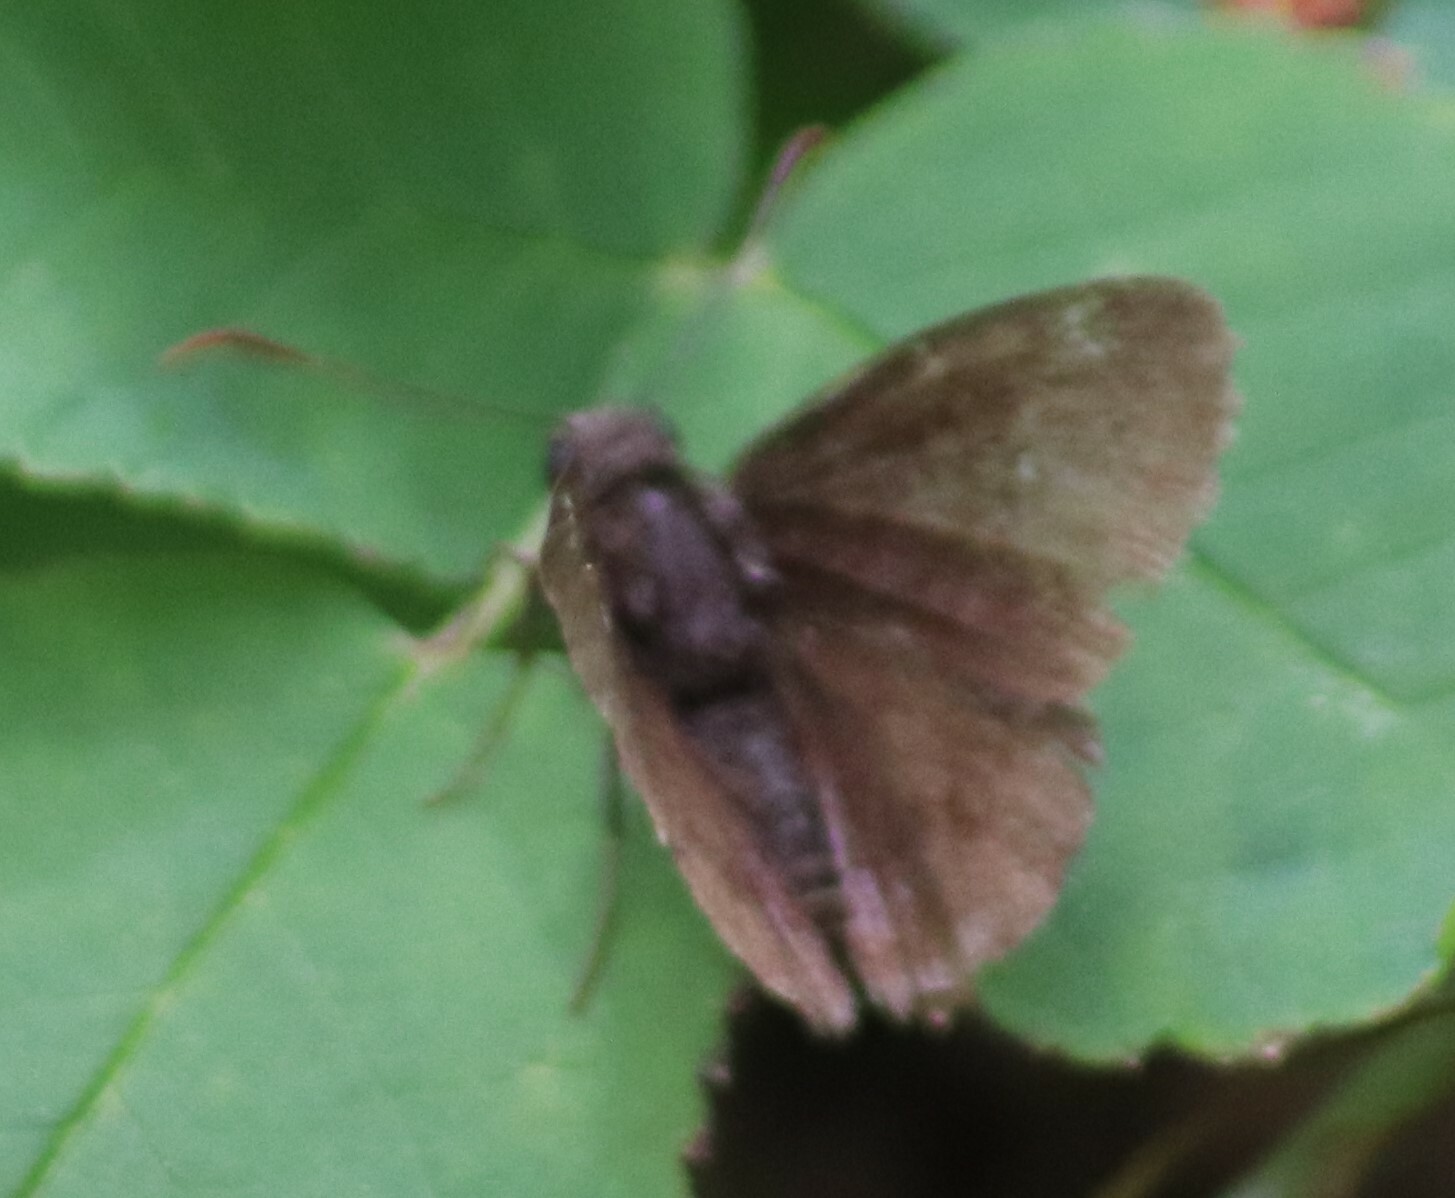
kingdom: Animalia
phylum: Arthropoda
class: Insecta
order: Lepidoptera
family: Hesperiidae
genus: Thorybes
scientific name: Thorybes pylades
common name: Northern cloudywing
